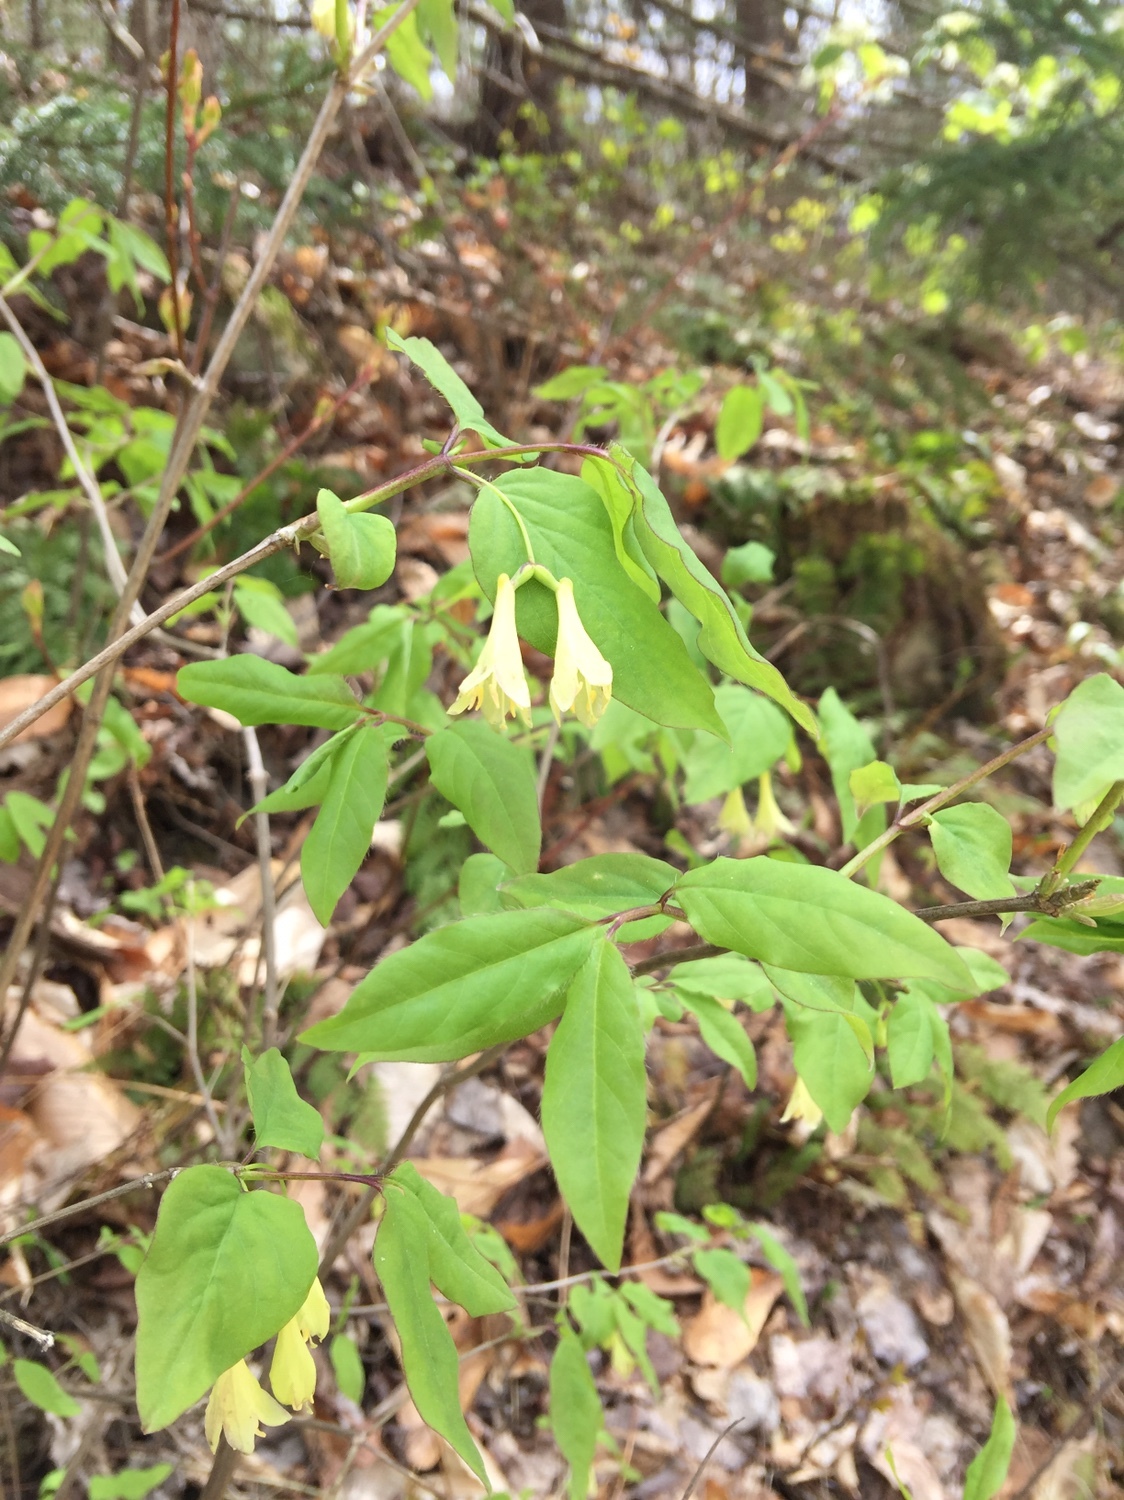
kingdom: Plantae
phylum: Tracheophyta
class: Magnoliopsida
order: Dipsacales
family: Caprifoliaceae
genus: Lonicera
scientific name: Lonicera canadensis
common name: American fly-honeysuckle
